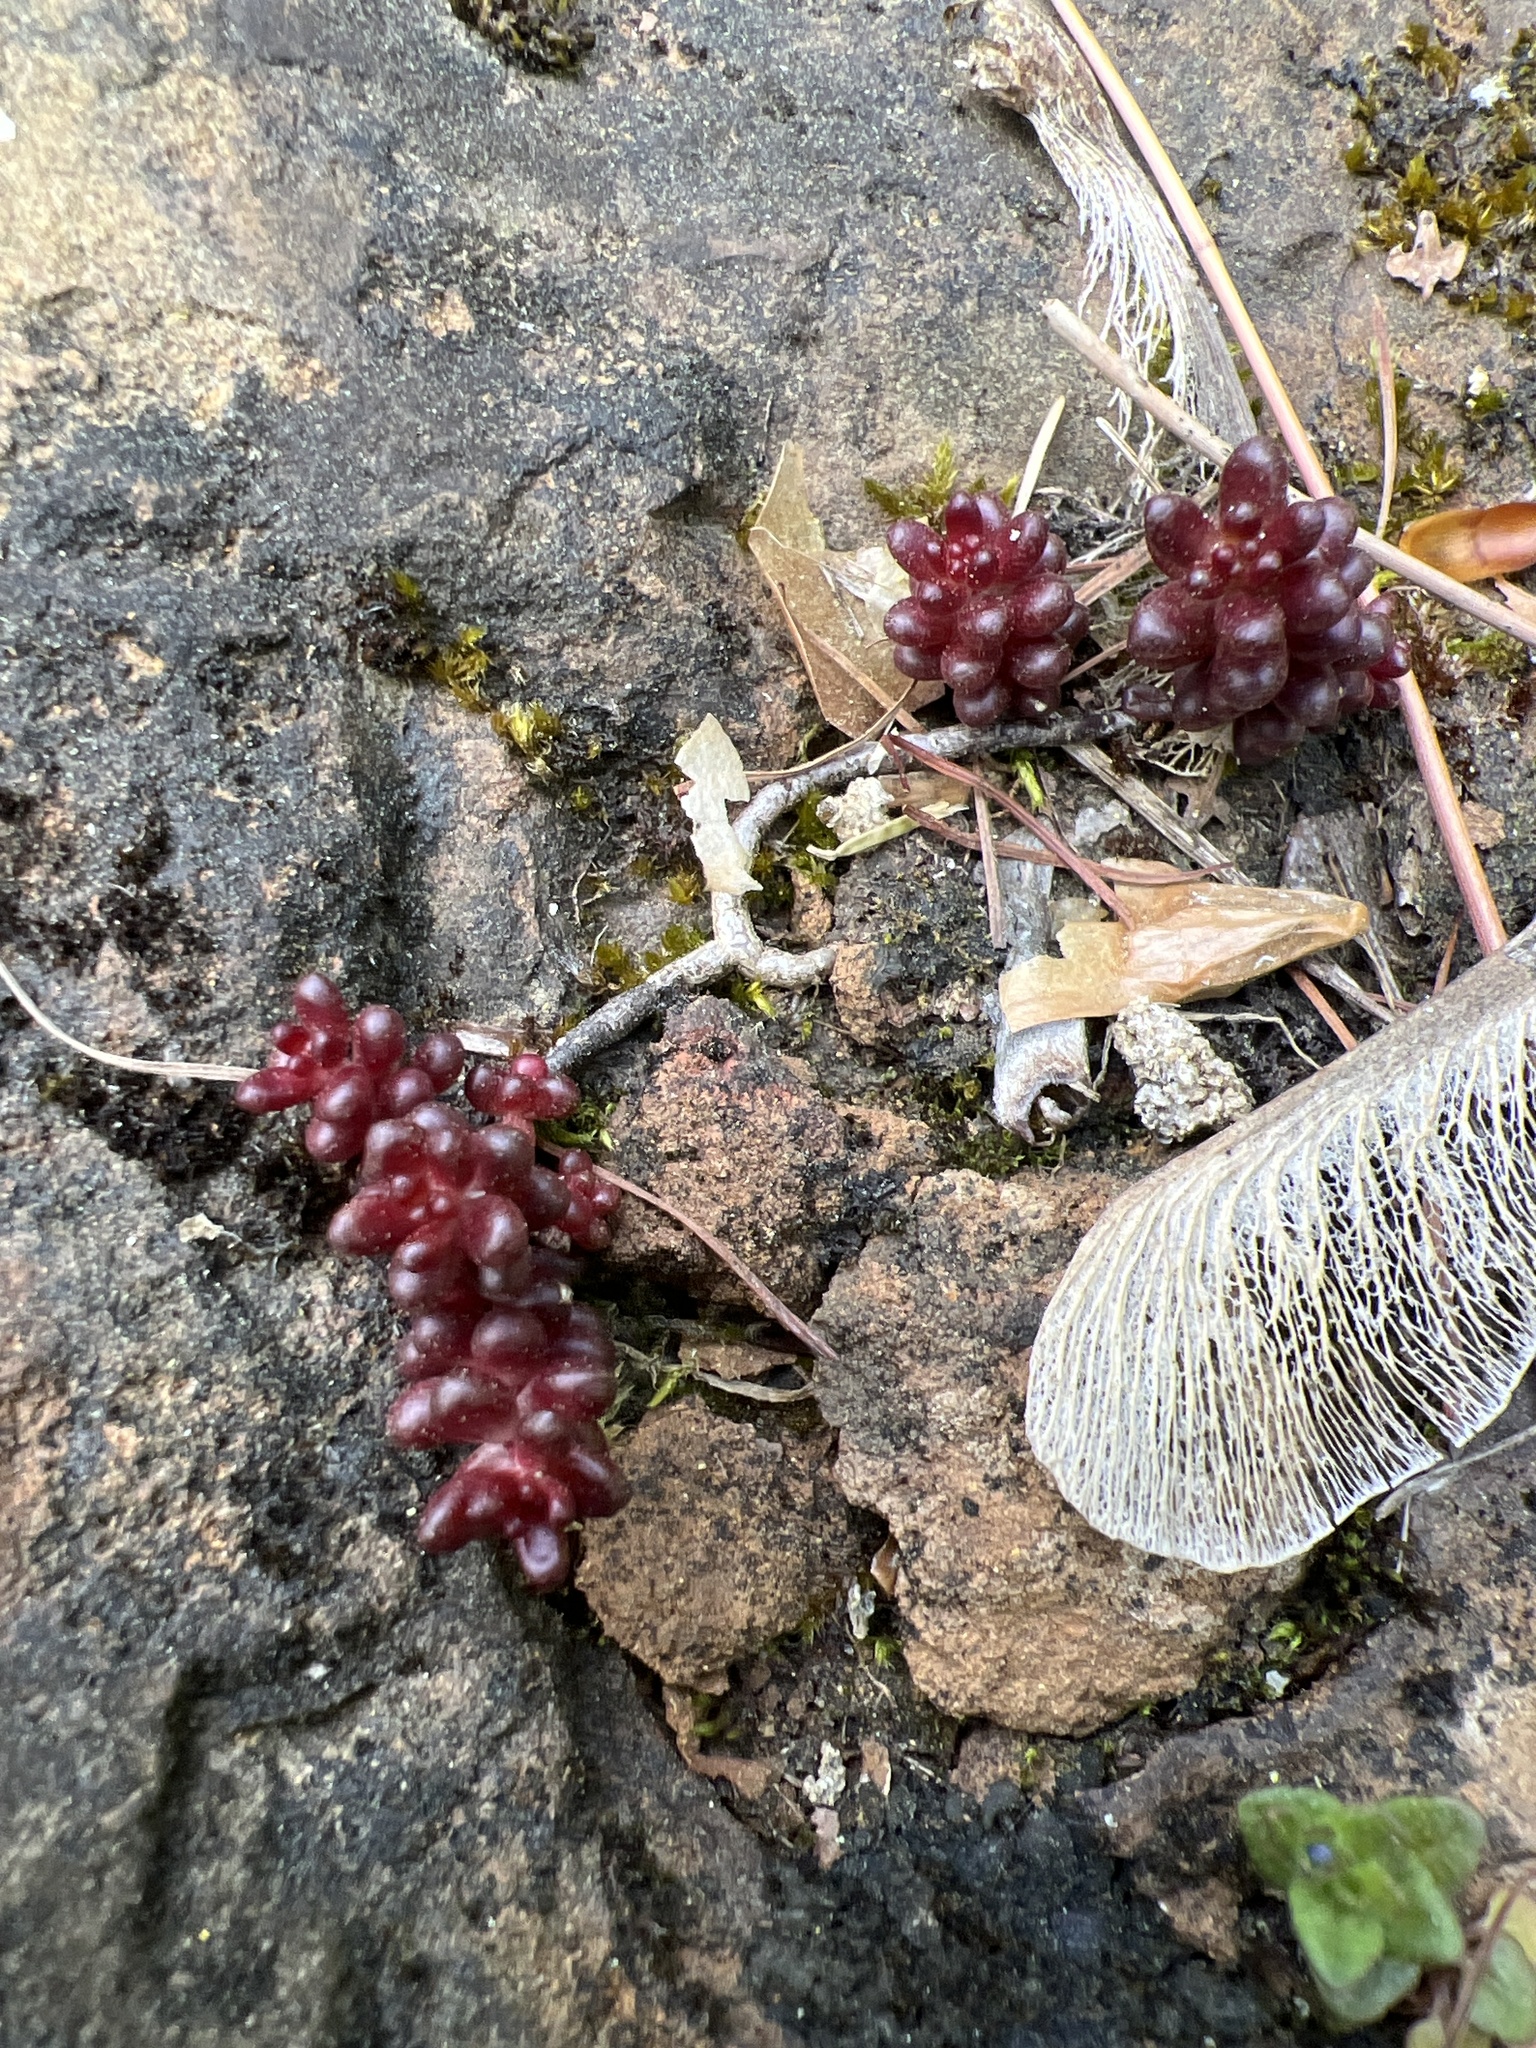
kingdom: Plantae
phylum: Tracheophyta
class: Magnoliopsida
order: Saxifragales
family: Crassulaceae
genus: Sedum
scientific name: Sedum album
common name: White stonecrop
